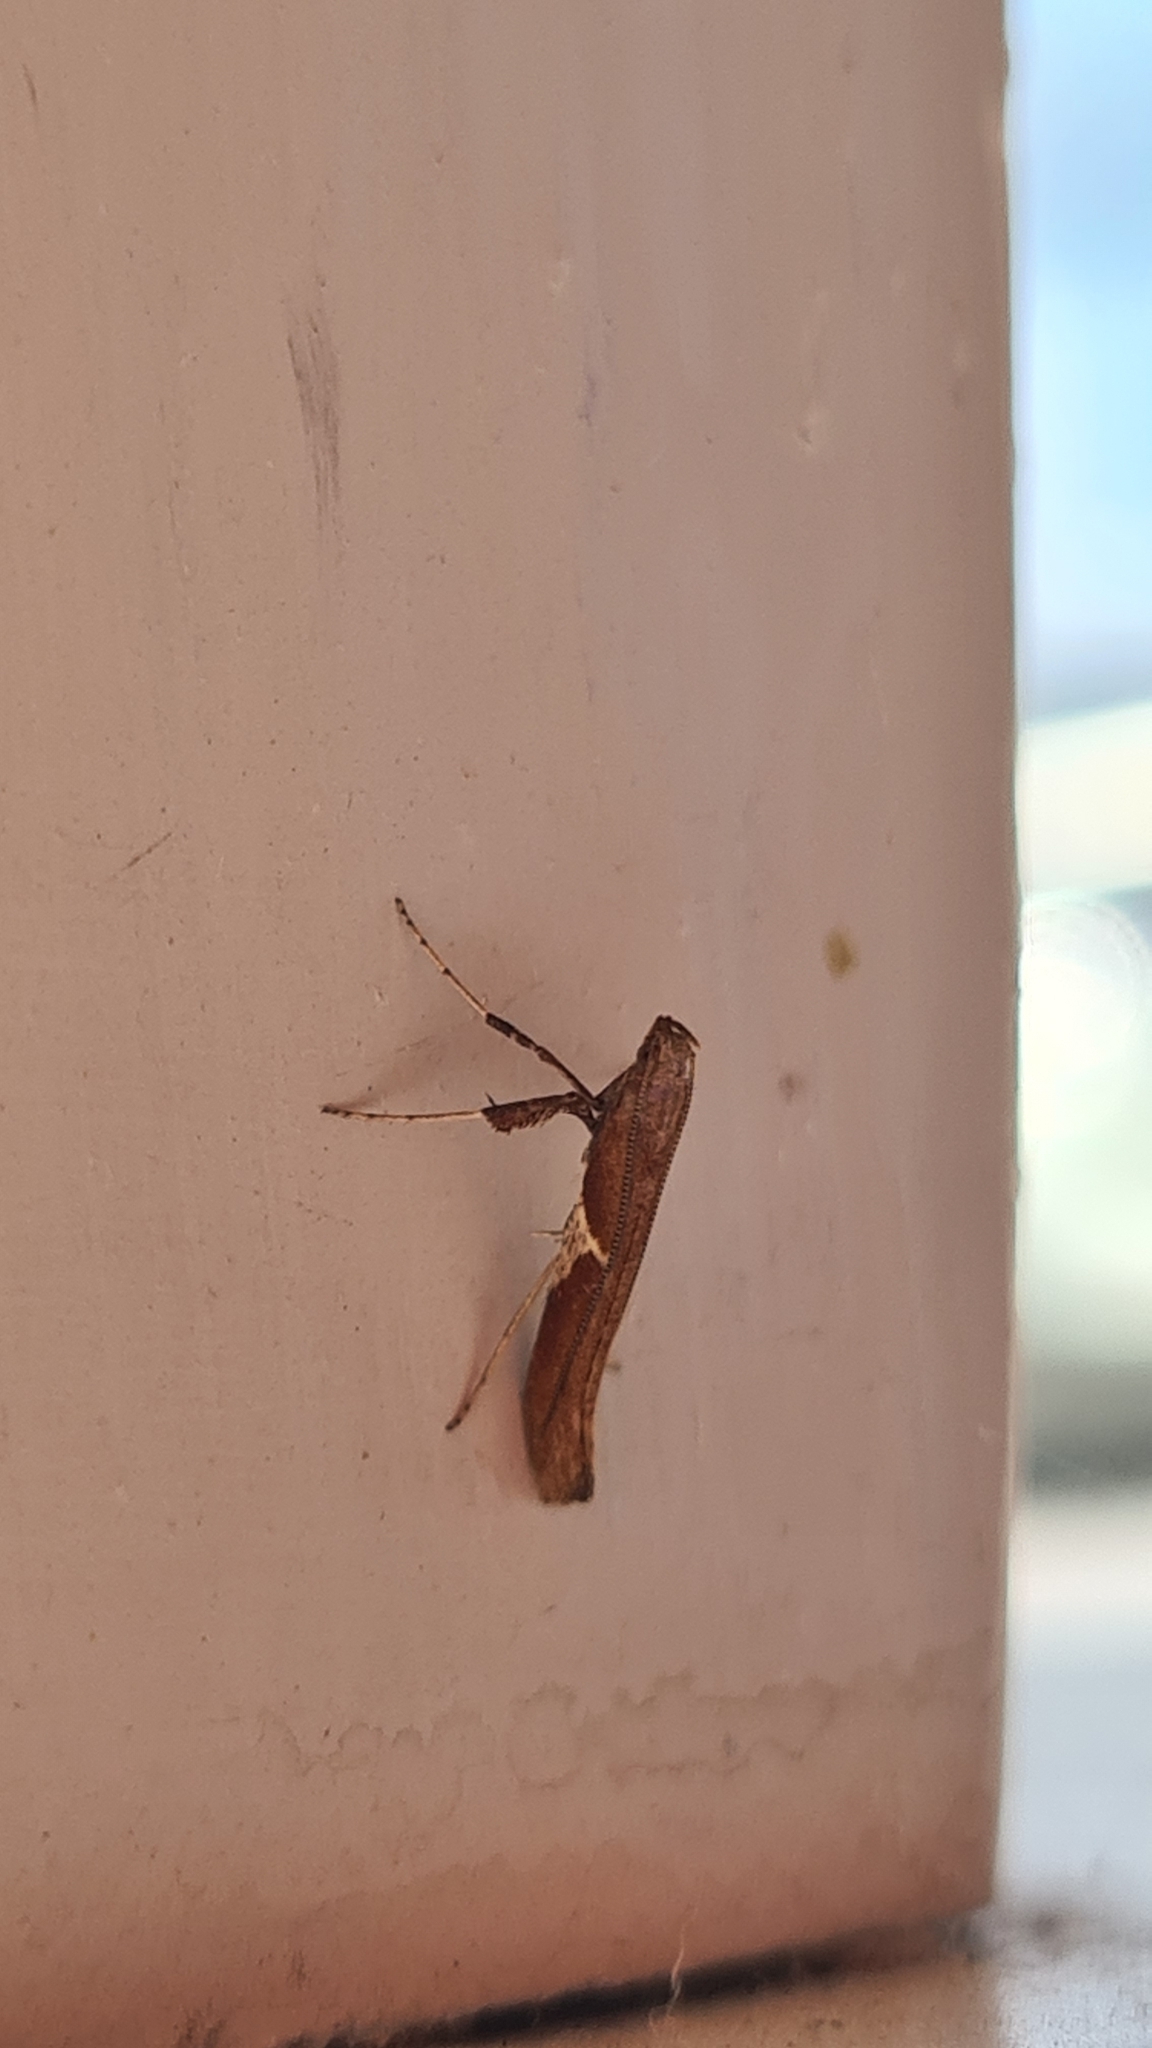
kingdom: Animalia
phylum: Arthropoda
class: Insecta
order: Lepidoptera
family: Gracillariidae
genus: Caloptilia
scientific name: Caloptilia stigmatella
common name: White-triangle slender
